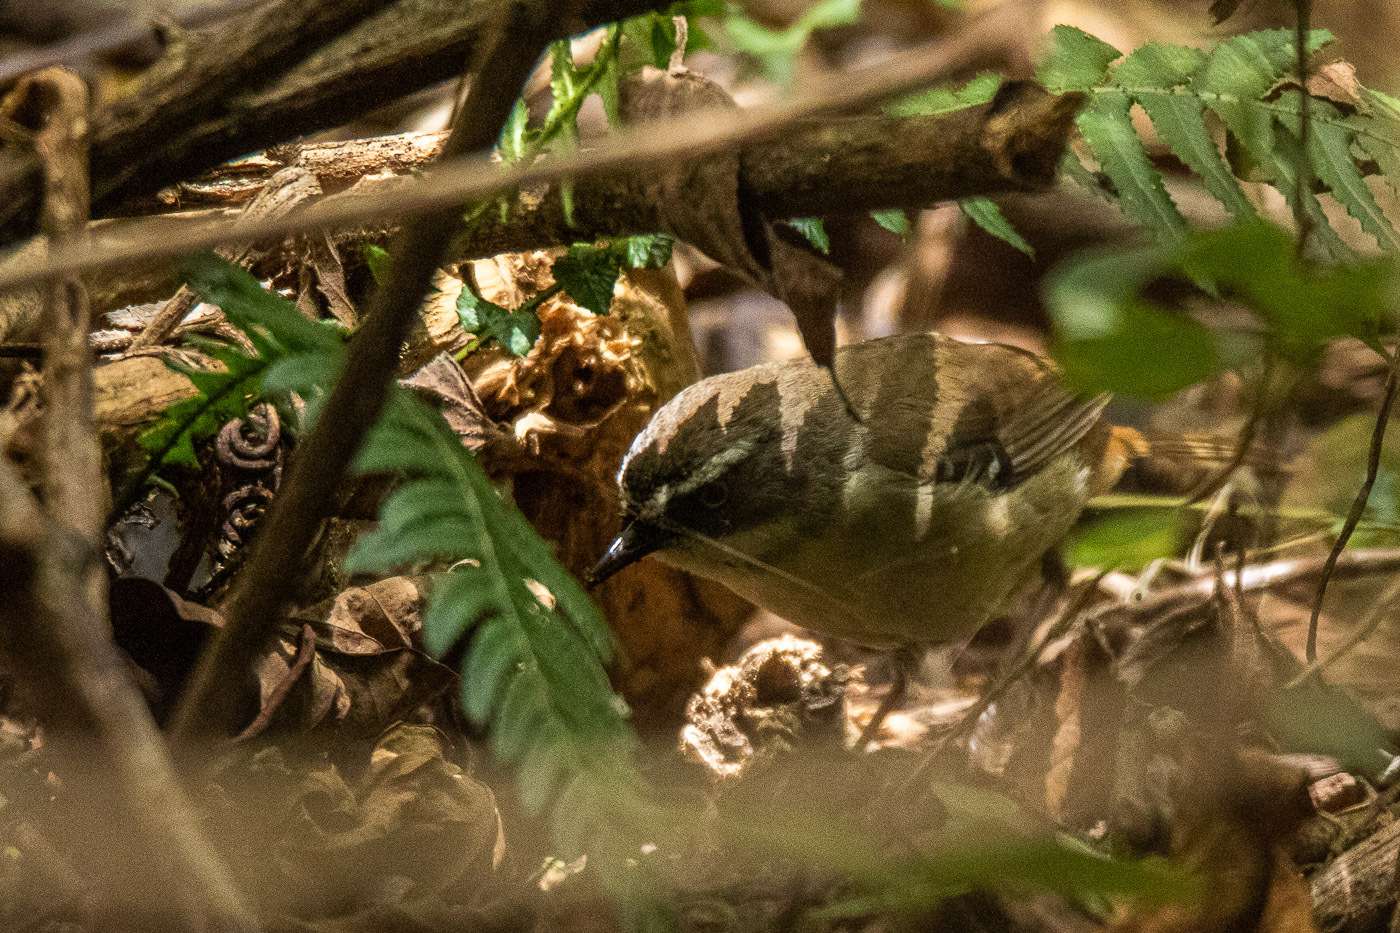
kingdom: Animalia
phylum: Chordata
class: Aves
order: Passeriformes
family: Acanthizidae
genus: Sericornis
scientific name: Sericornis frontalis
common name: White-browed scrubwren
